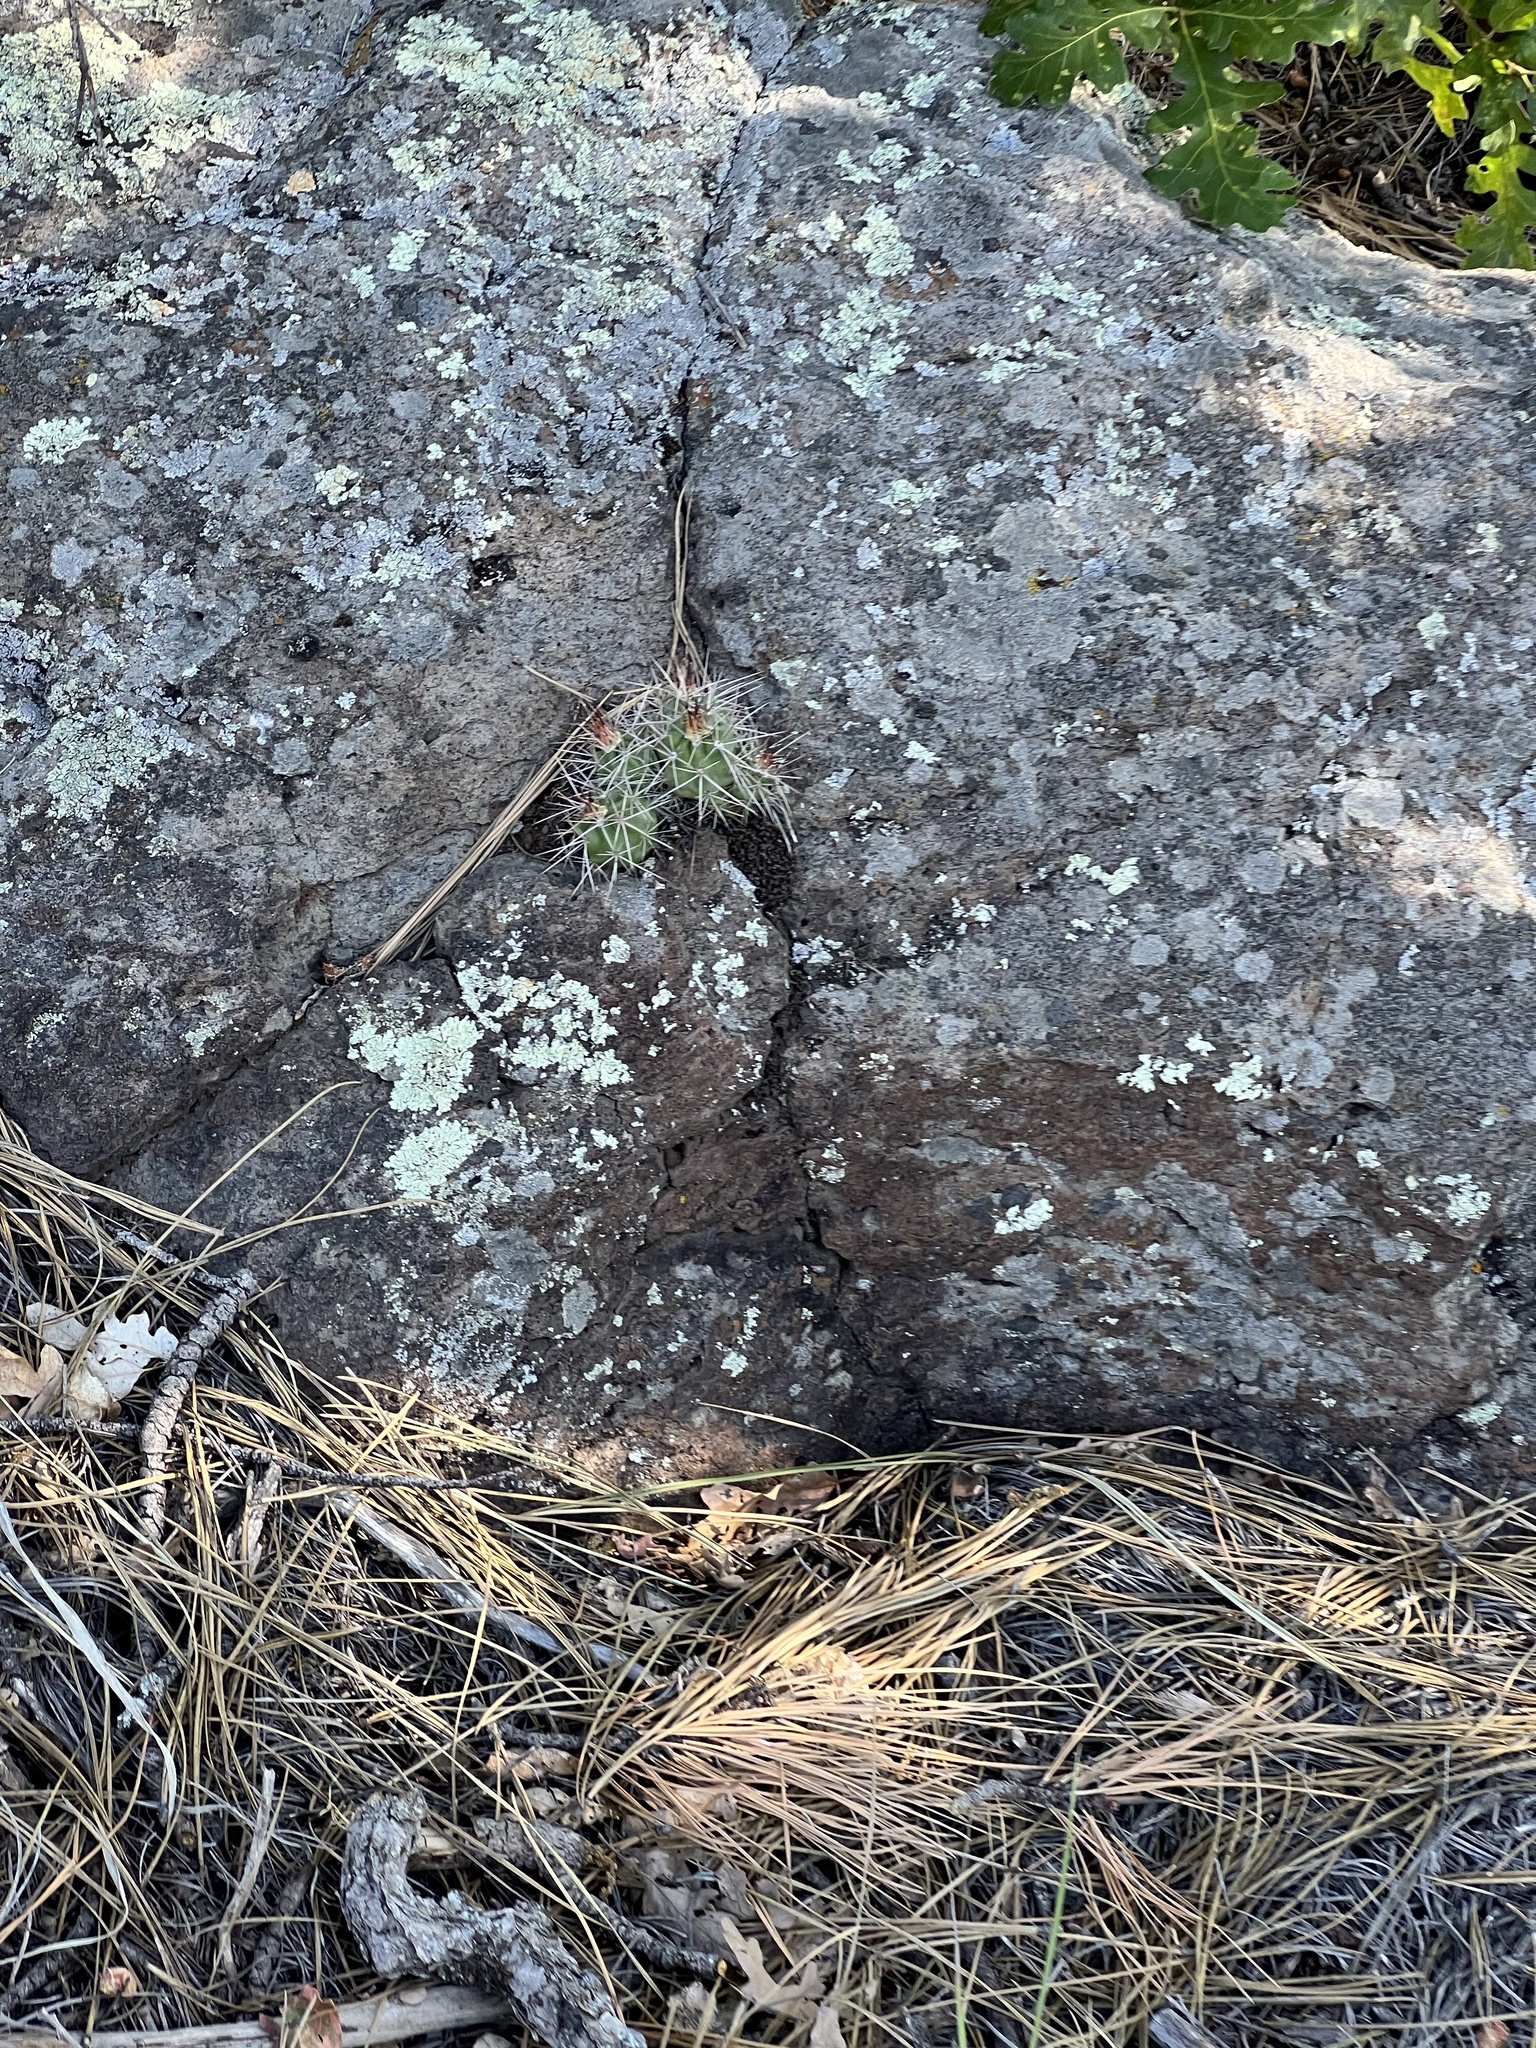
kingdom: Plantae
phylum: Tracheophyta
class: Magnoliopsida
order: Caryophyllales
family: Cactaceae
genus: Echinocereus
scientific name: Echinocereus bakeri
